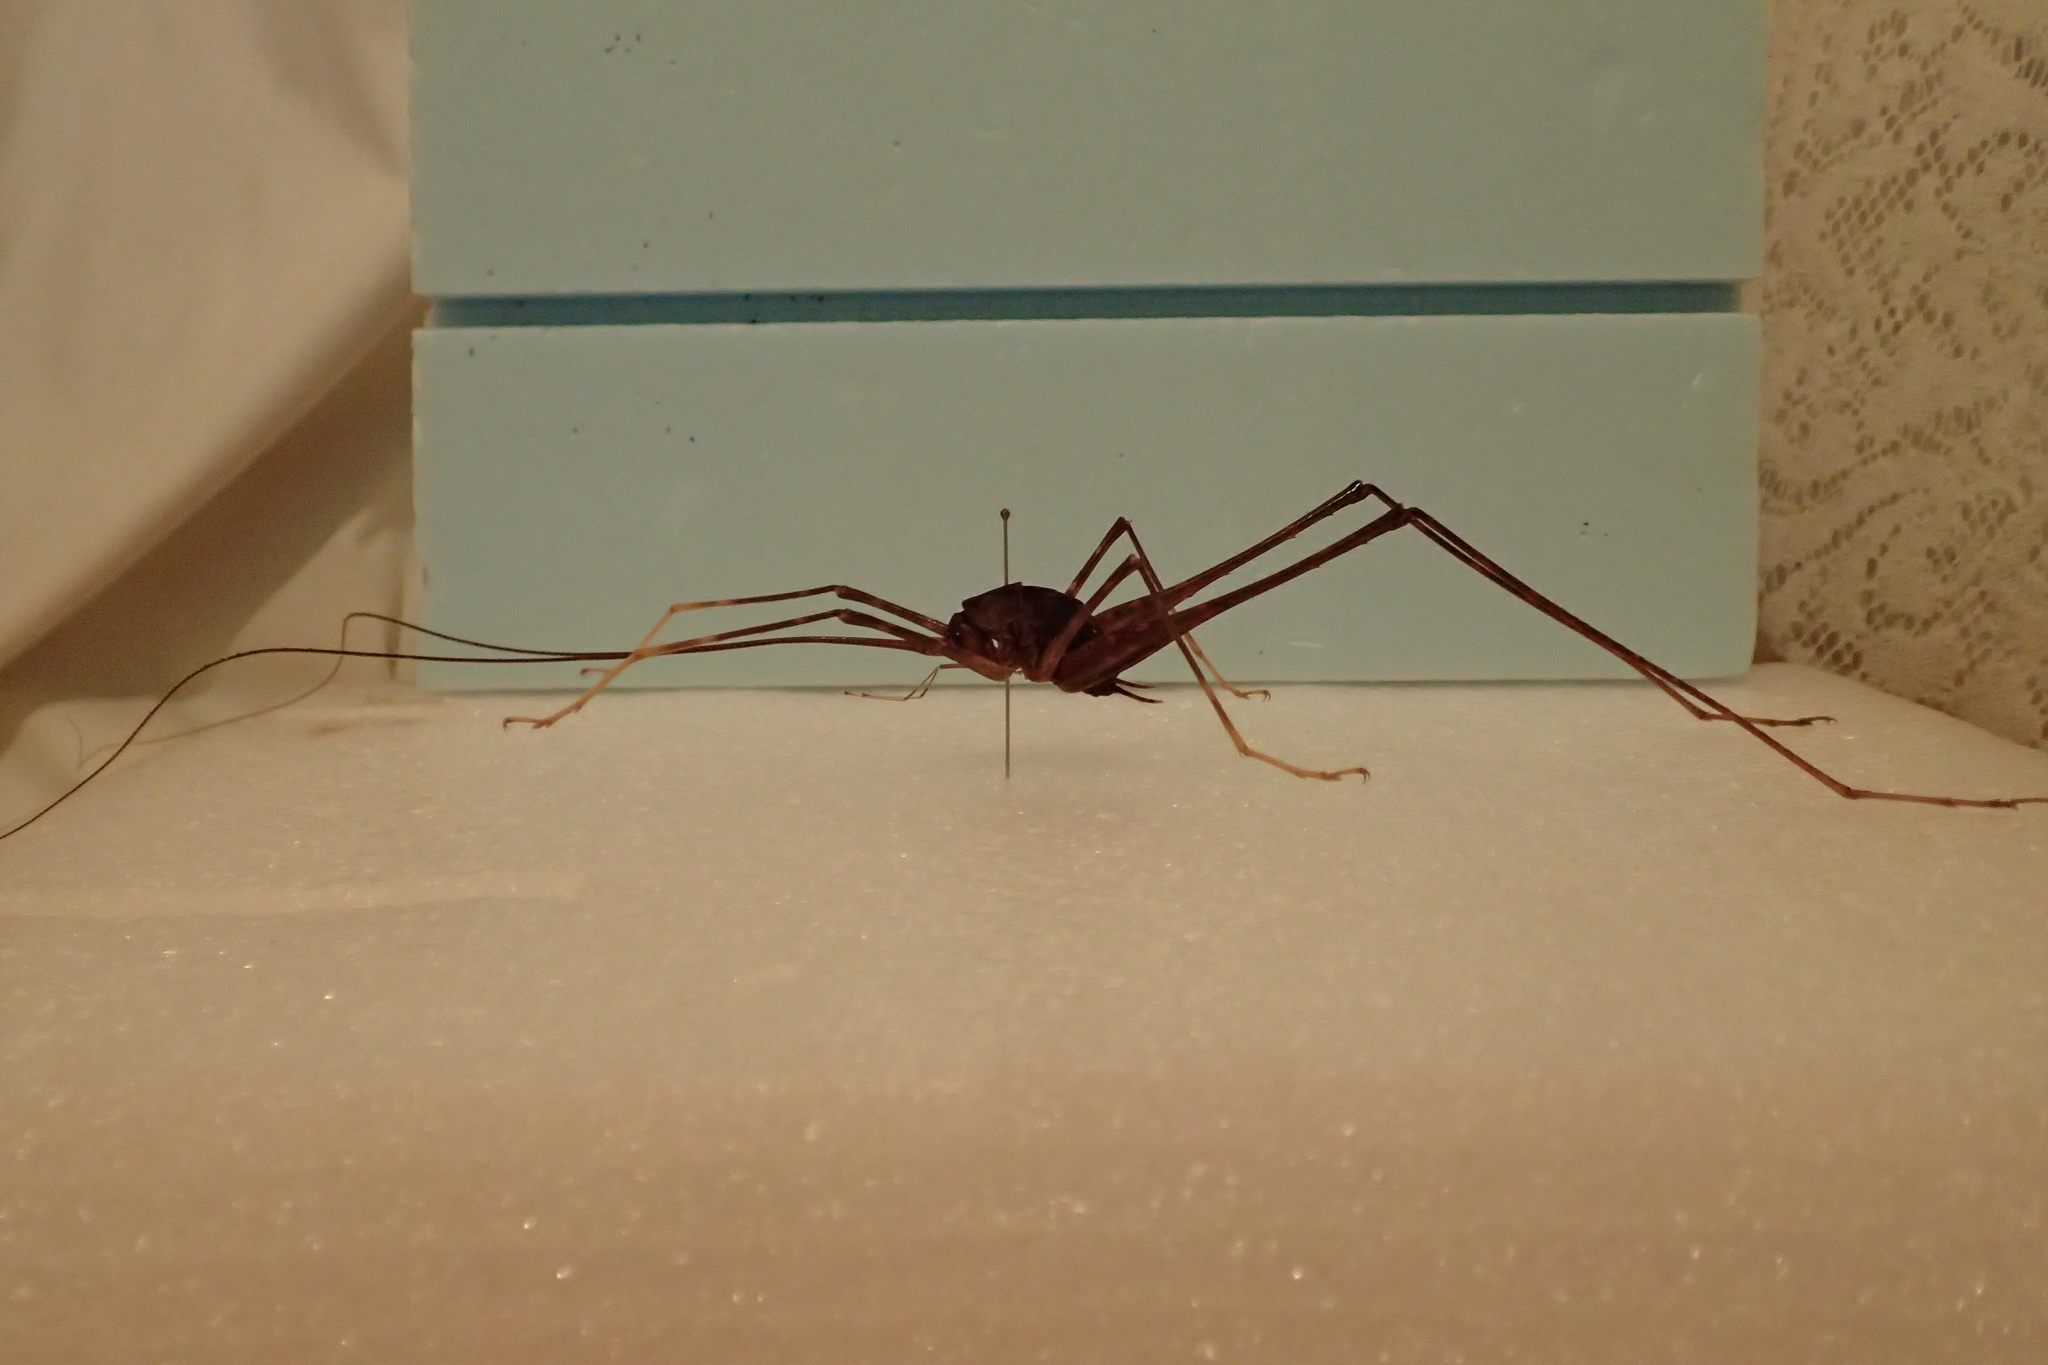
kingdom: Animalia
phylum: Arthropoda
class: Insecta
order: Orthoptera
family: Rhaphidophoridae
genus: Pachyrhamma
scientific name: Pachyrhamma cavernae
